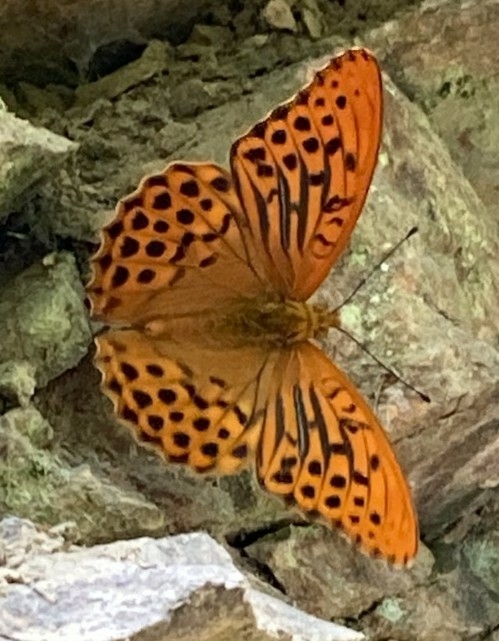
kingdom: Animalia
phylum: Arthropoda
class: Insecta
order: Lepidoptera
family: Nymphalidae
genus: Argynnis
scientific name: Argynnis paphia
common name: Silver-washed fritillary
